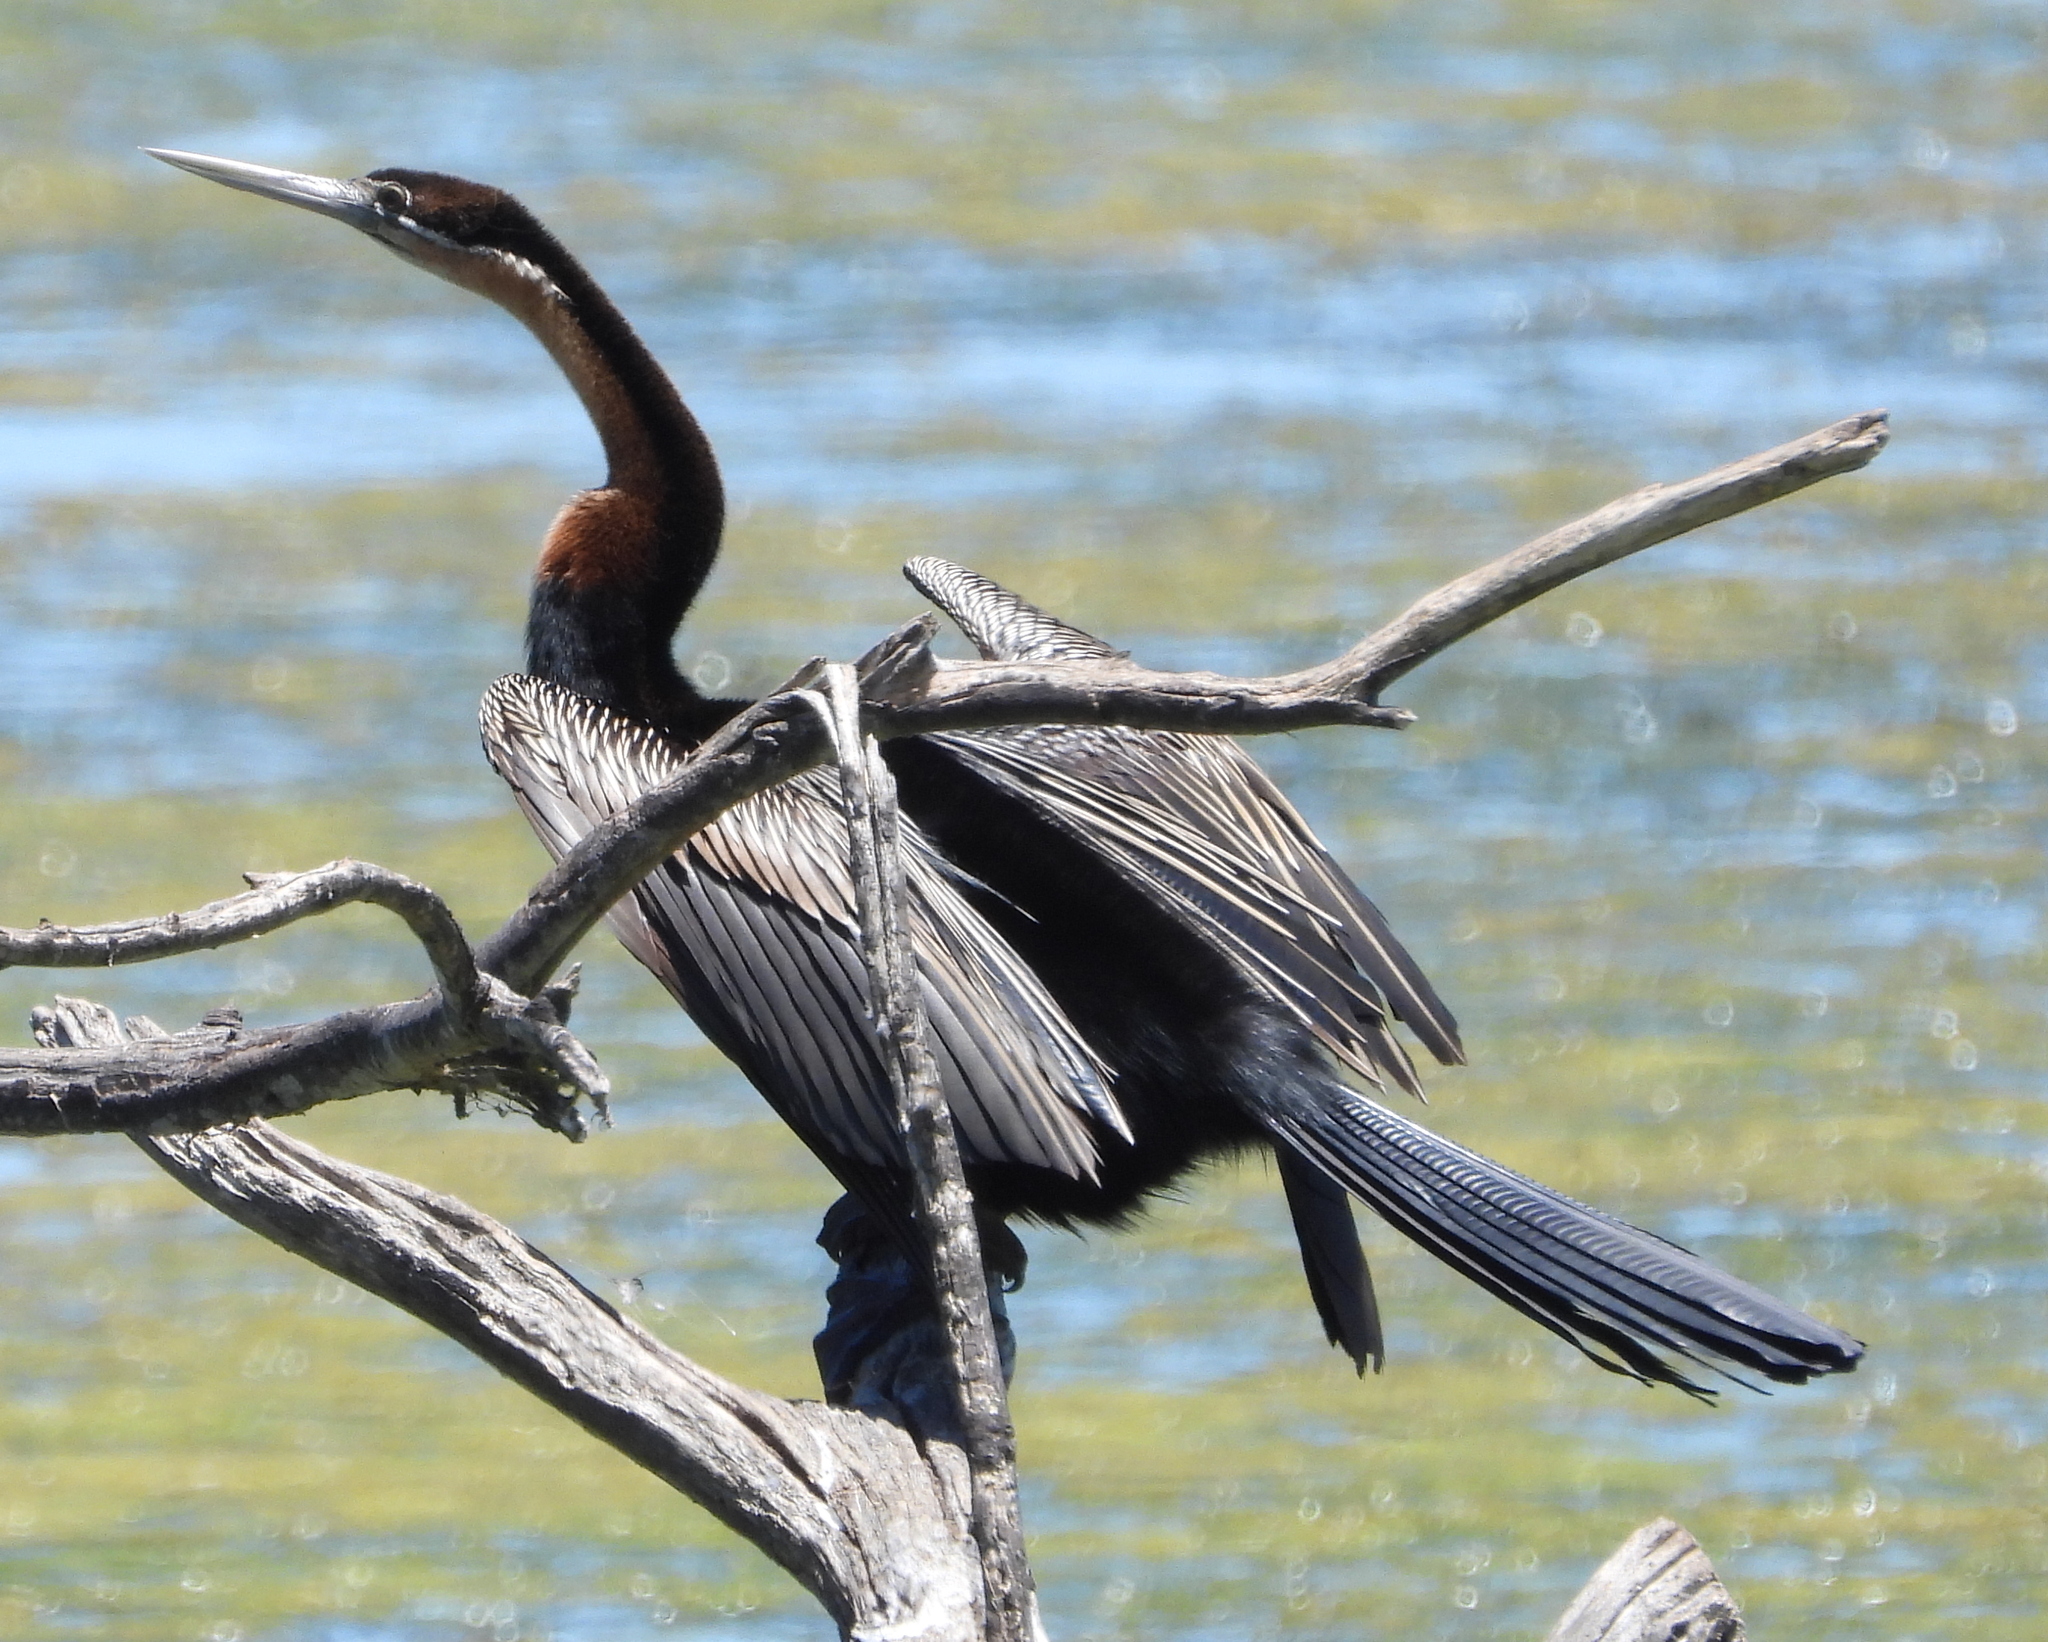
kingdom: Animalia
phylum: Chordata
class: Aves
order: Suliformes
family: Anhingidae
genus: Anhinga
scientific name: Anhinga rufa
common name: African darter
